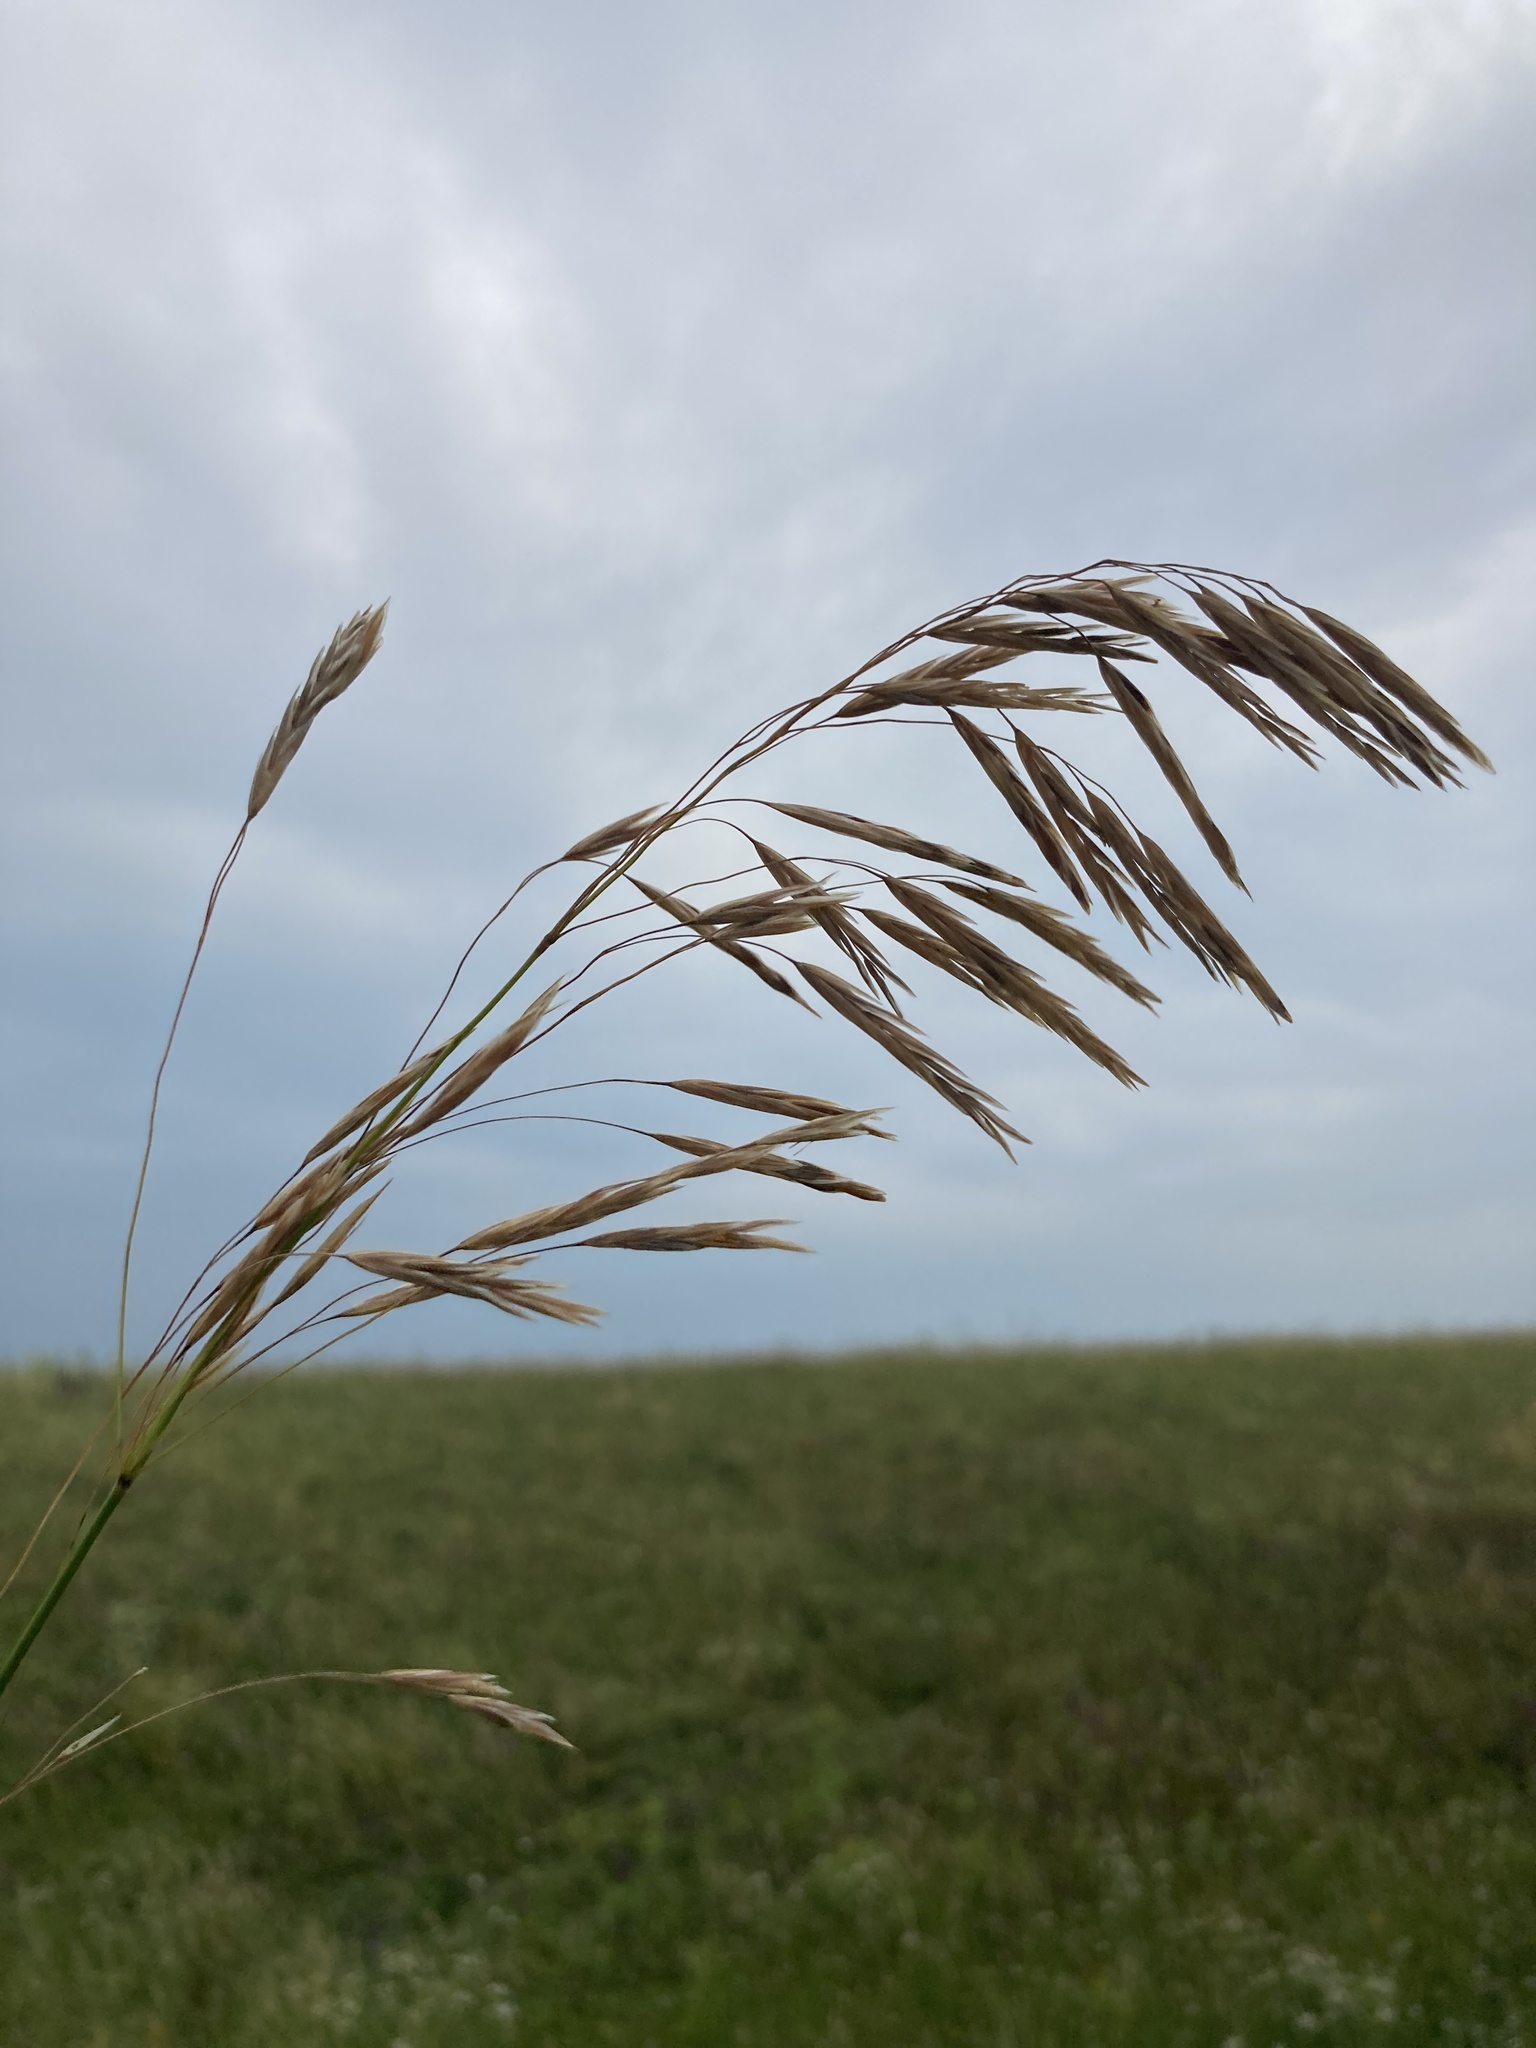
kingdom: Plantae
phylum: Tracheophyta
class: Liliopsida
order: Poales
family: Poaceae
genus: Bromus
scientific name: Bromus inermis
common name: Smooth brome
